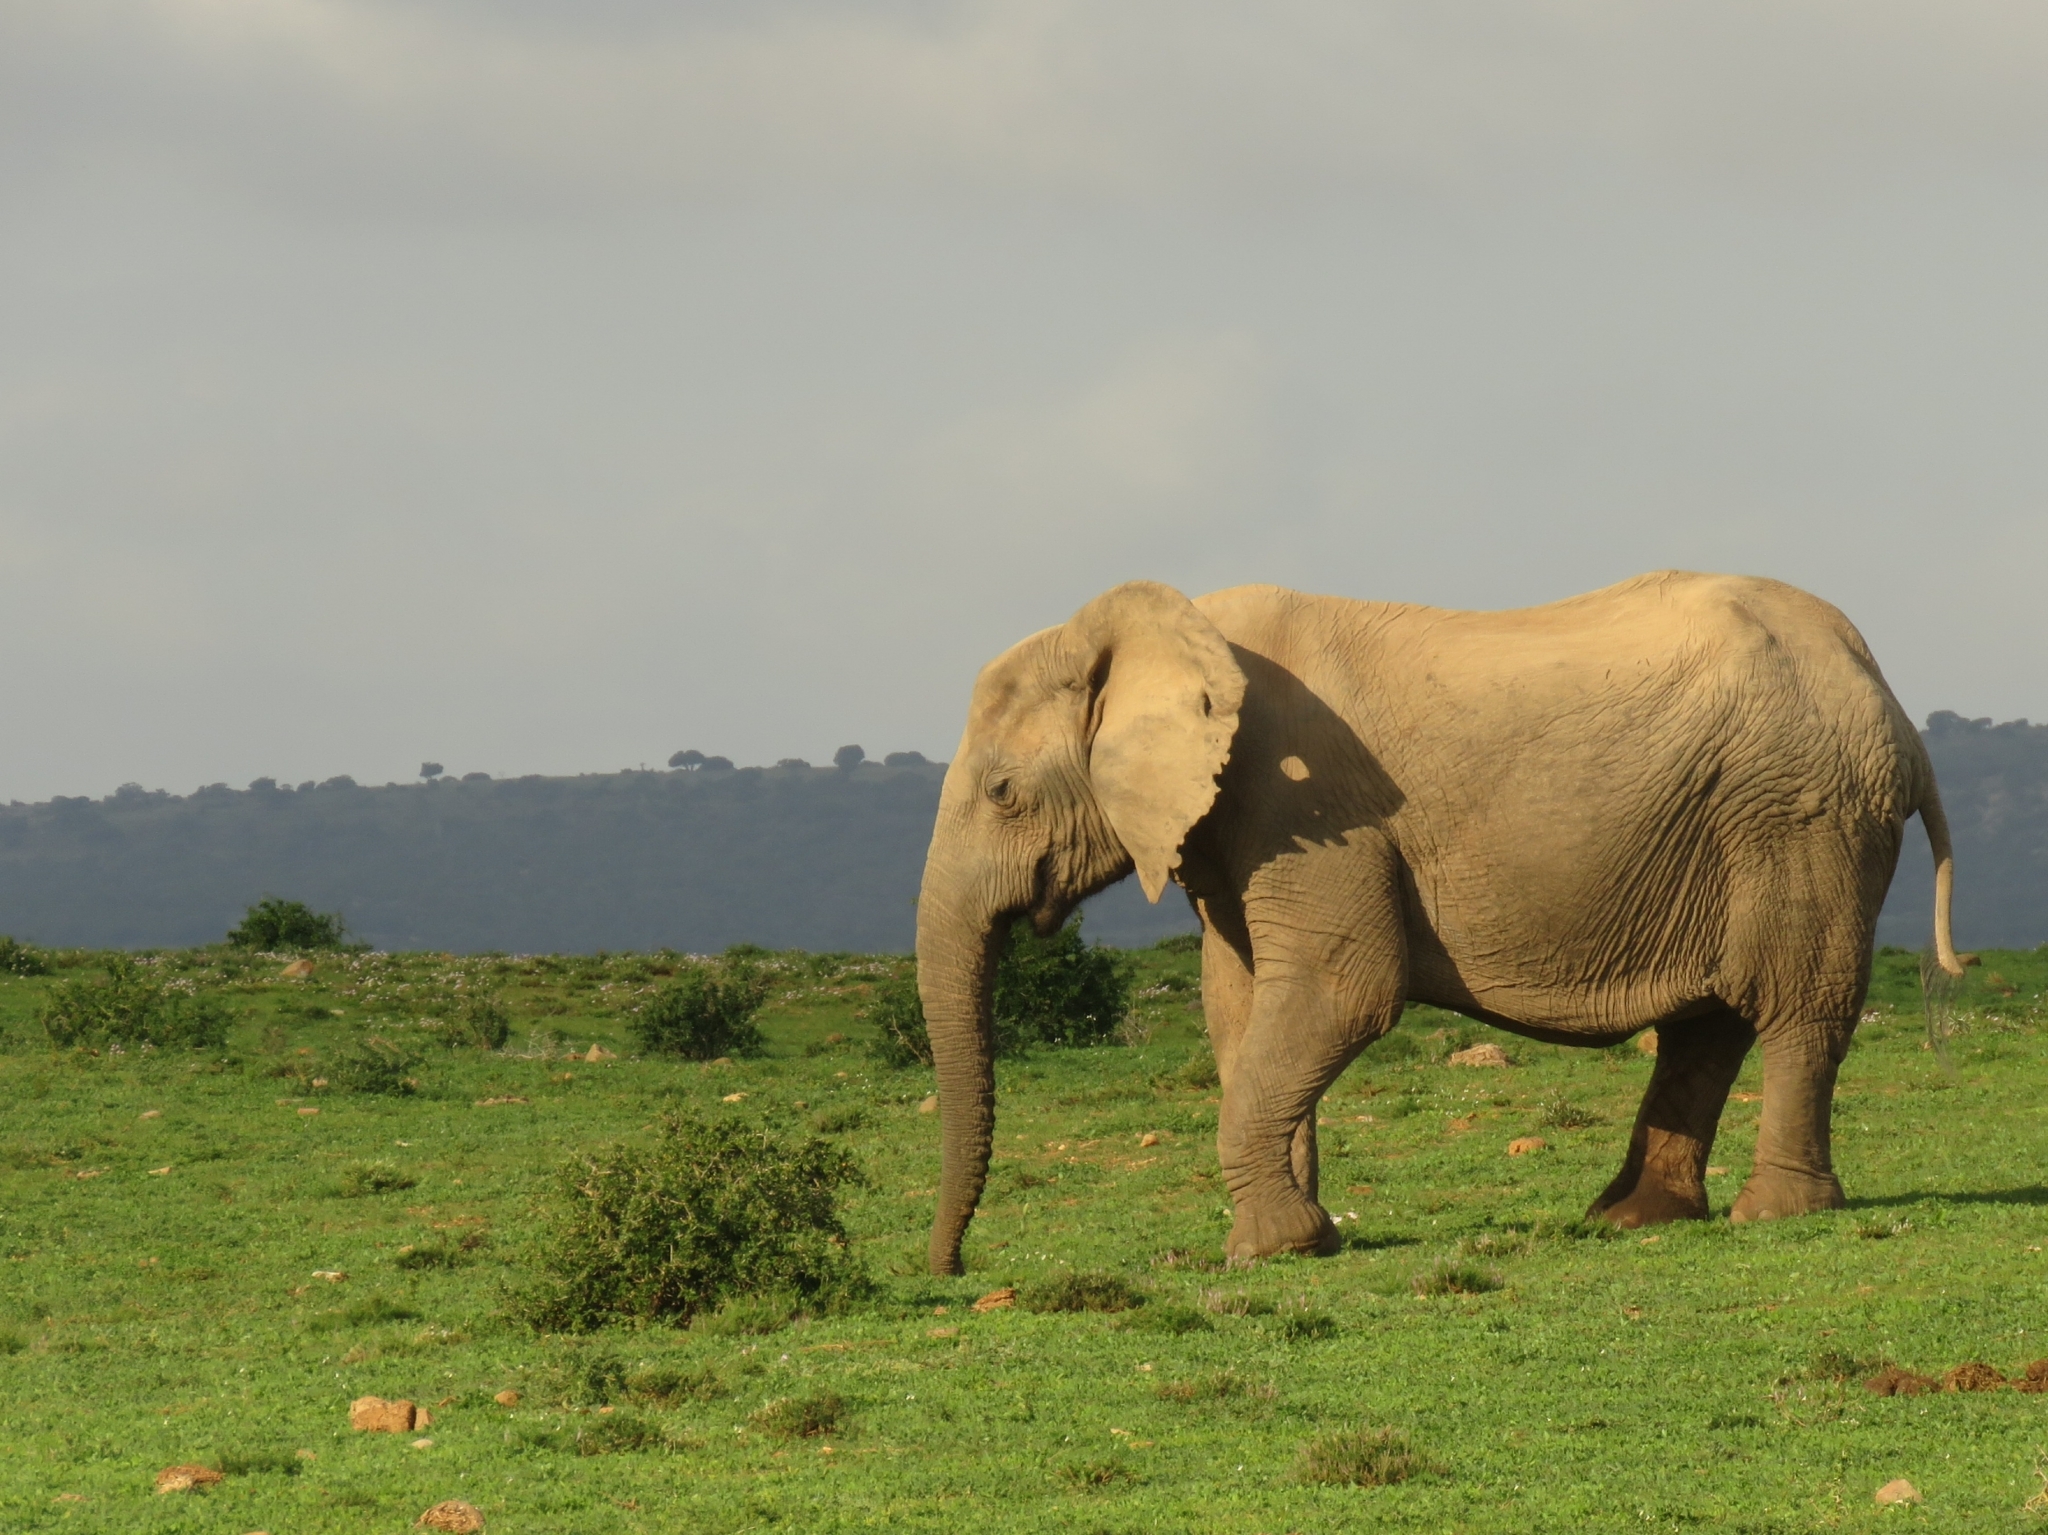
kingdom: Animalia
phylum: Chordata
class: Mammalia
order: Proboscidea
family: Elephantidae
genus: Loxodonta
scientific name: Loxodonta africana
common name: African elephant
